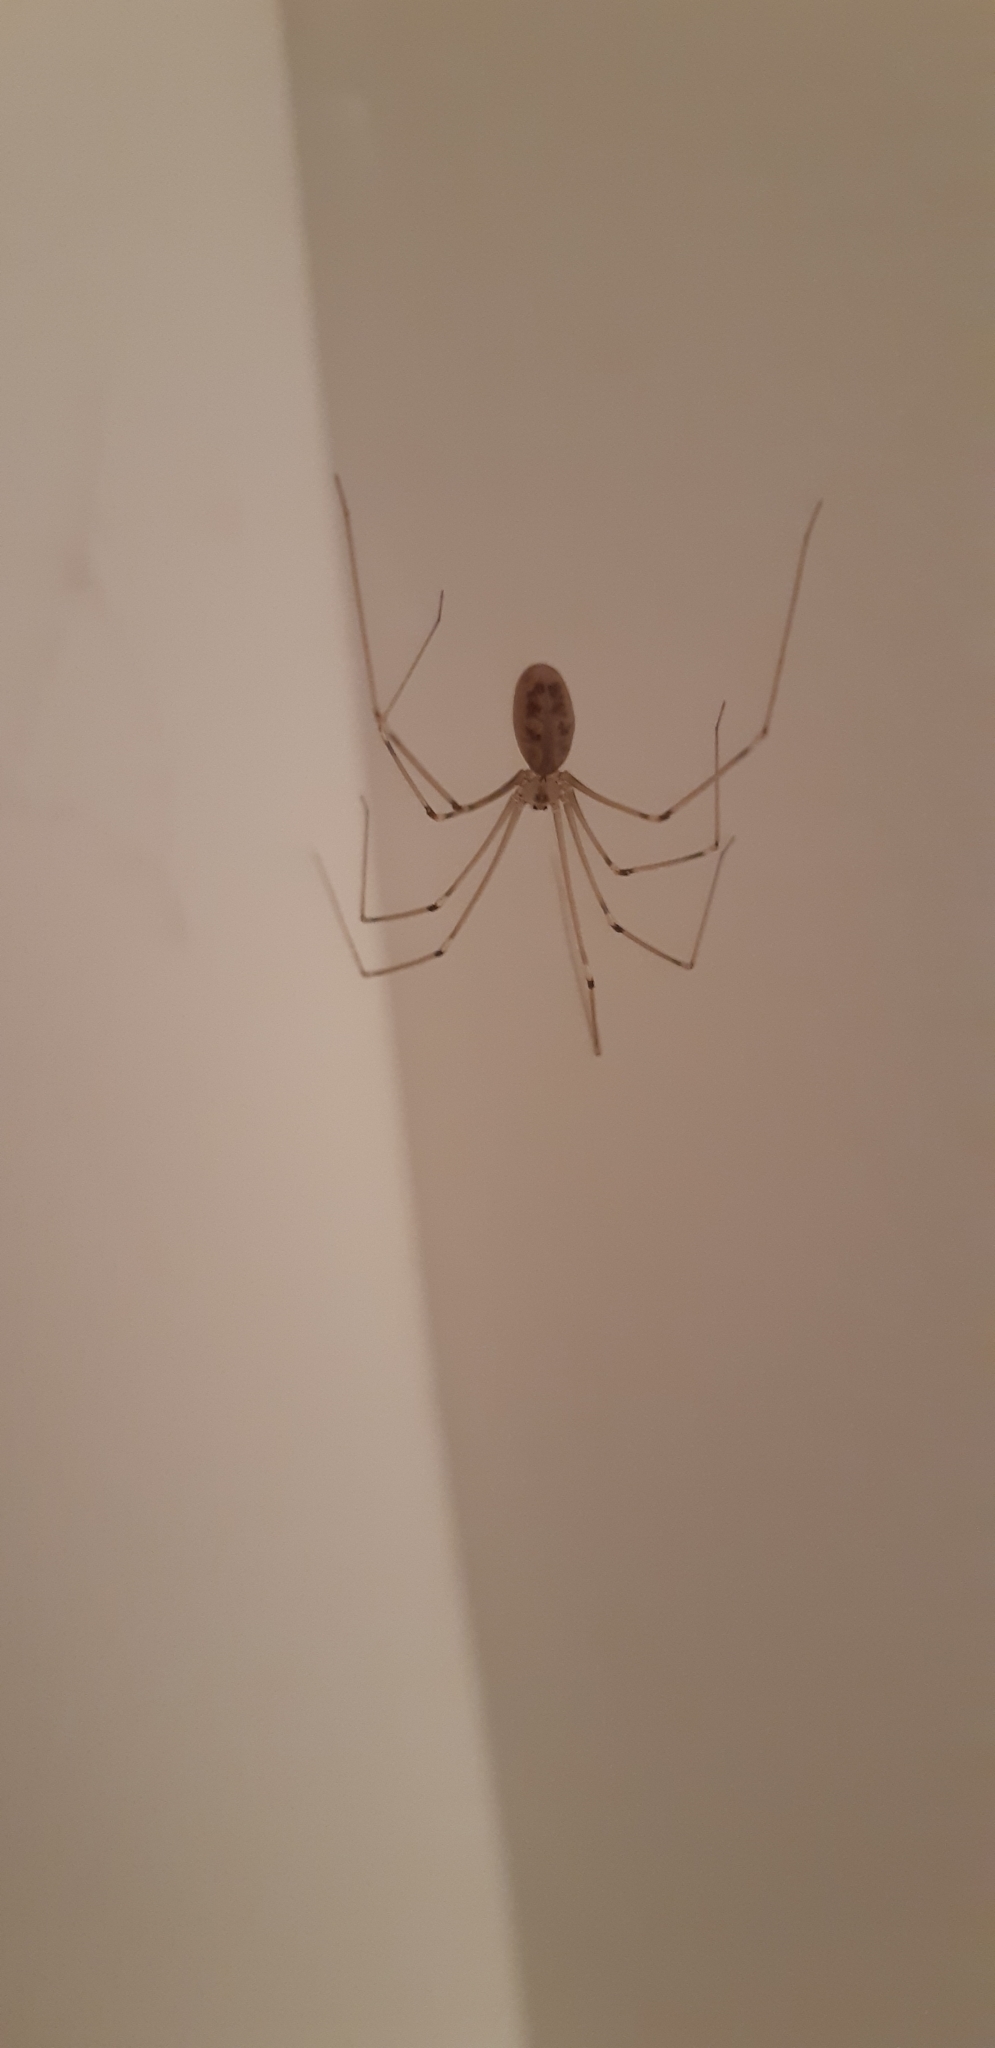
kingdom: Animalia
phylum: Arthropoda
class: Arachnida
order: Araneae
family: Pholcidae
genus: Pholcus
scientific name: Pholcus phalangioides
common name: Longbodied cellar spider
